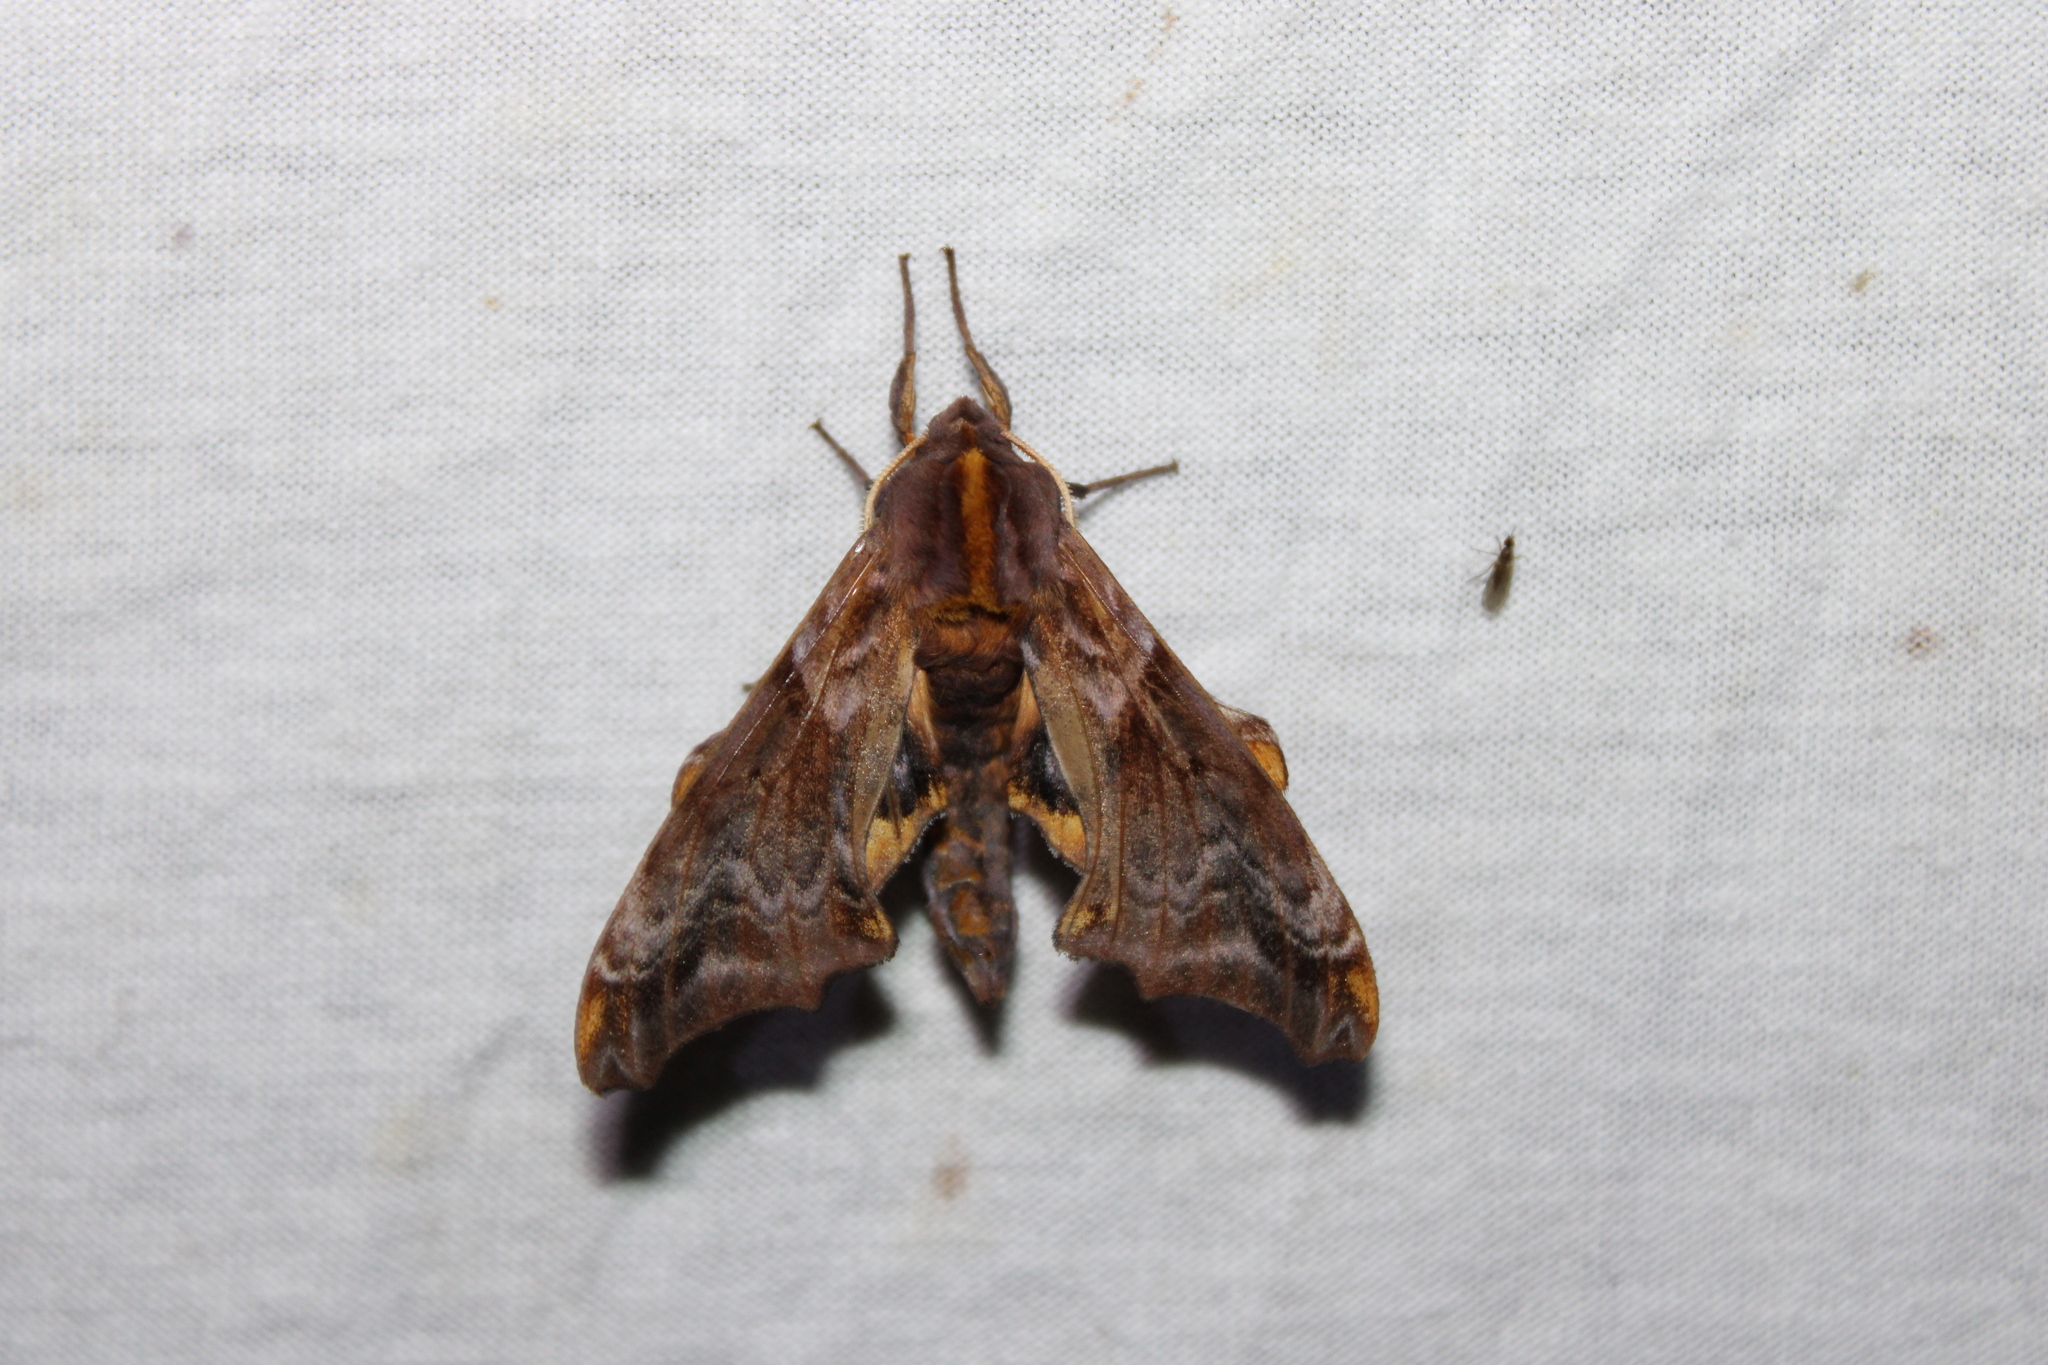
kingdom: Animalia
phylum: Arthropoda
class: Insecta
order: Lepidoptera
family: Sphingidae
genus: Paonias
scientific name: Paonias myops
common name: Small-eyed sphinx
